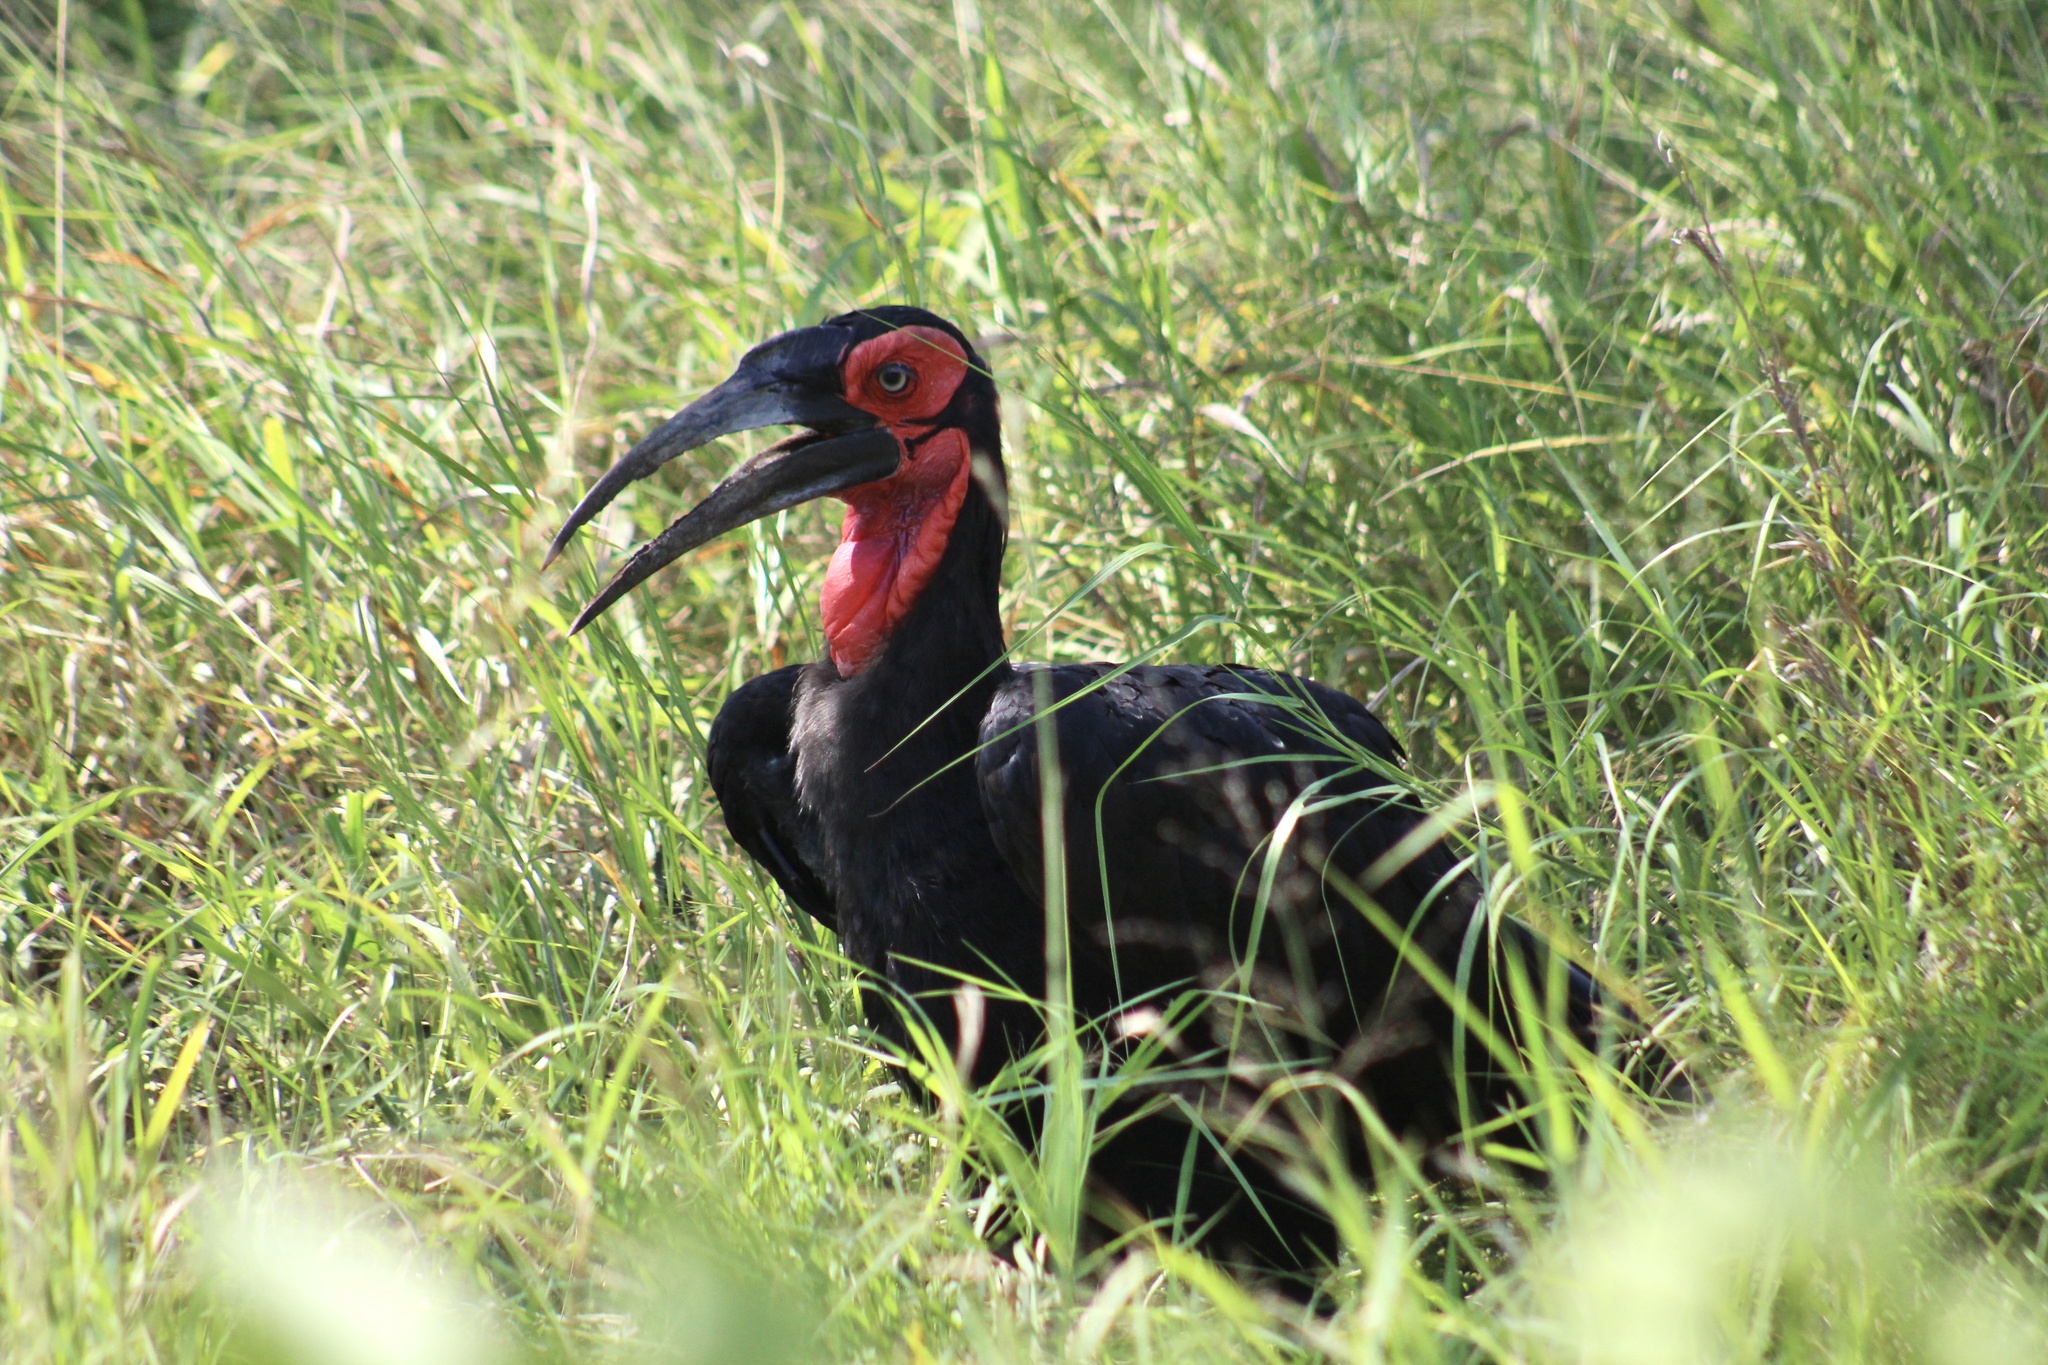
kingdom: Animalia
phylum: Chordata
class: Aves
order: Bucerotiformes
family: Bucorvidae
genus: Bucorvus
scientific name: Bucorvus leadbeateri
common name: Southern ground-hornbill
